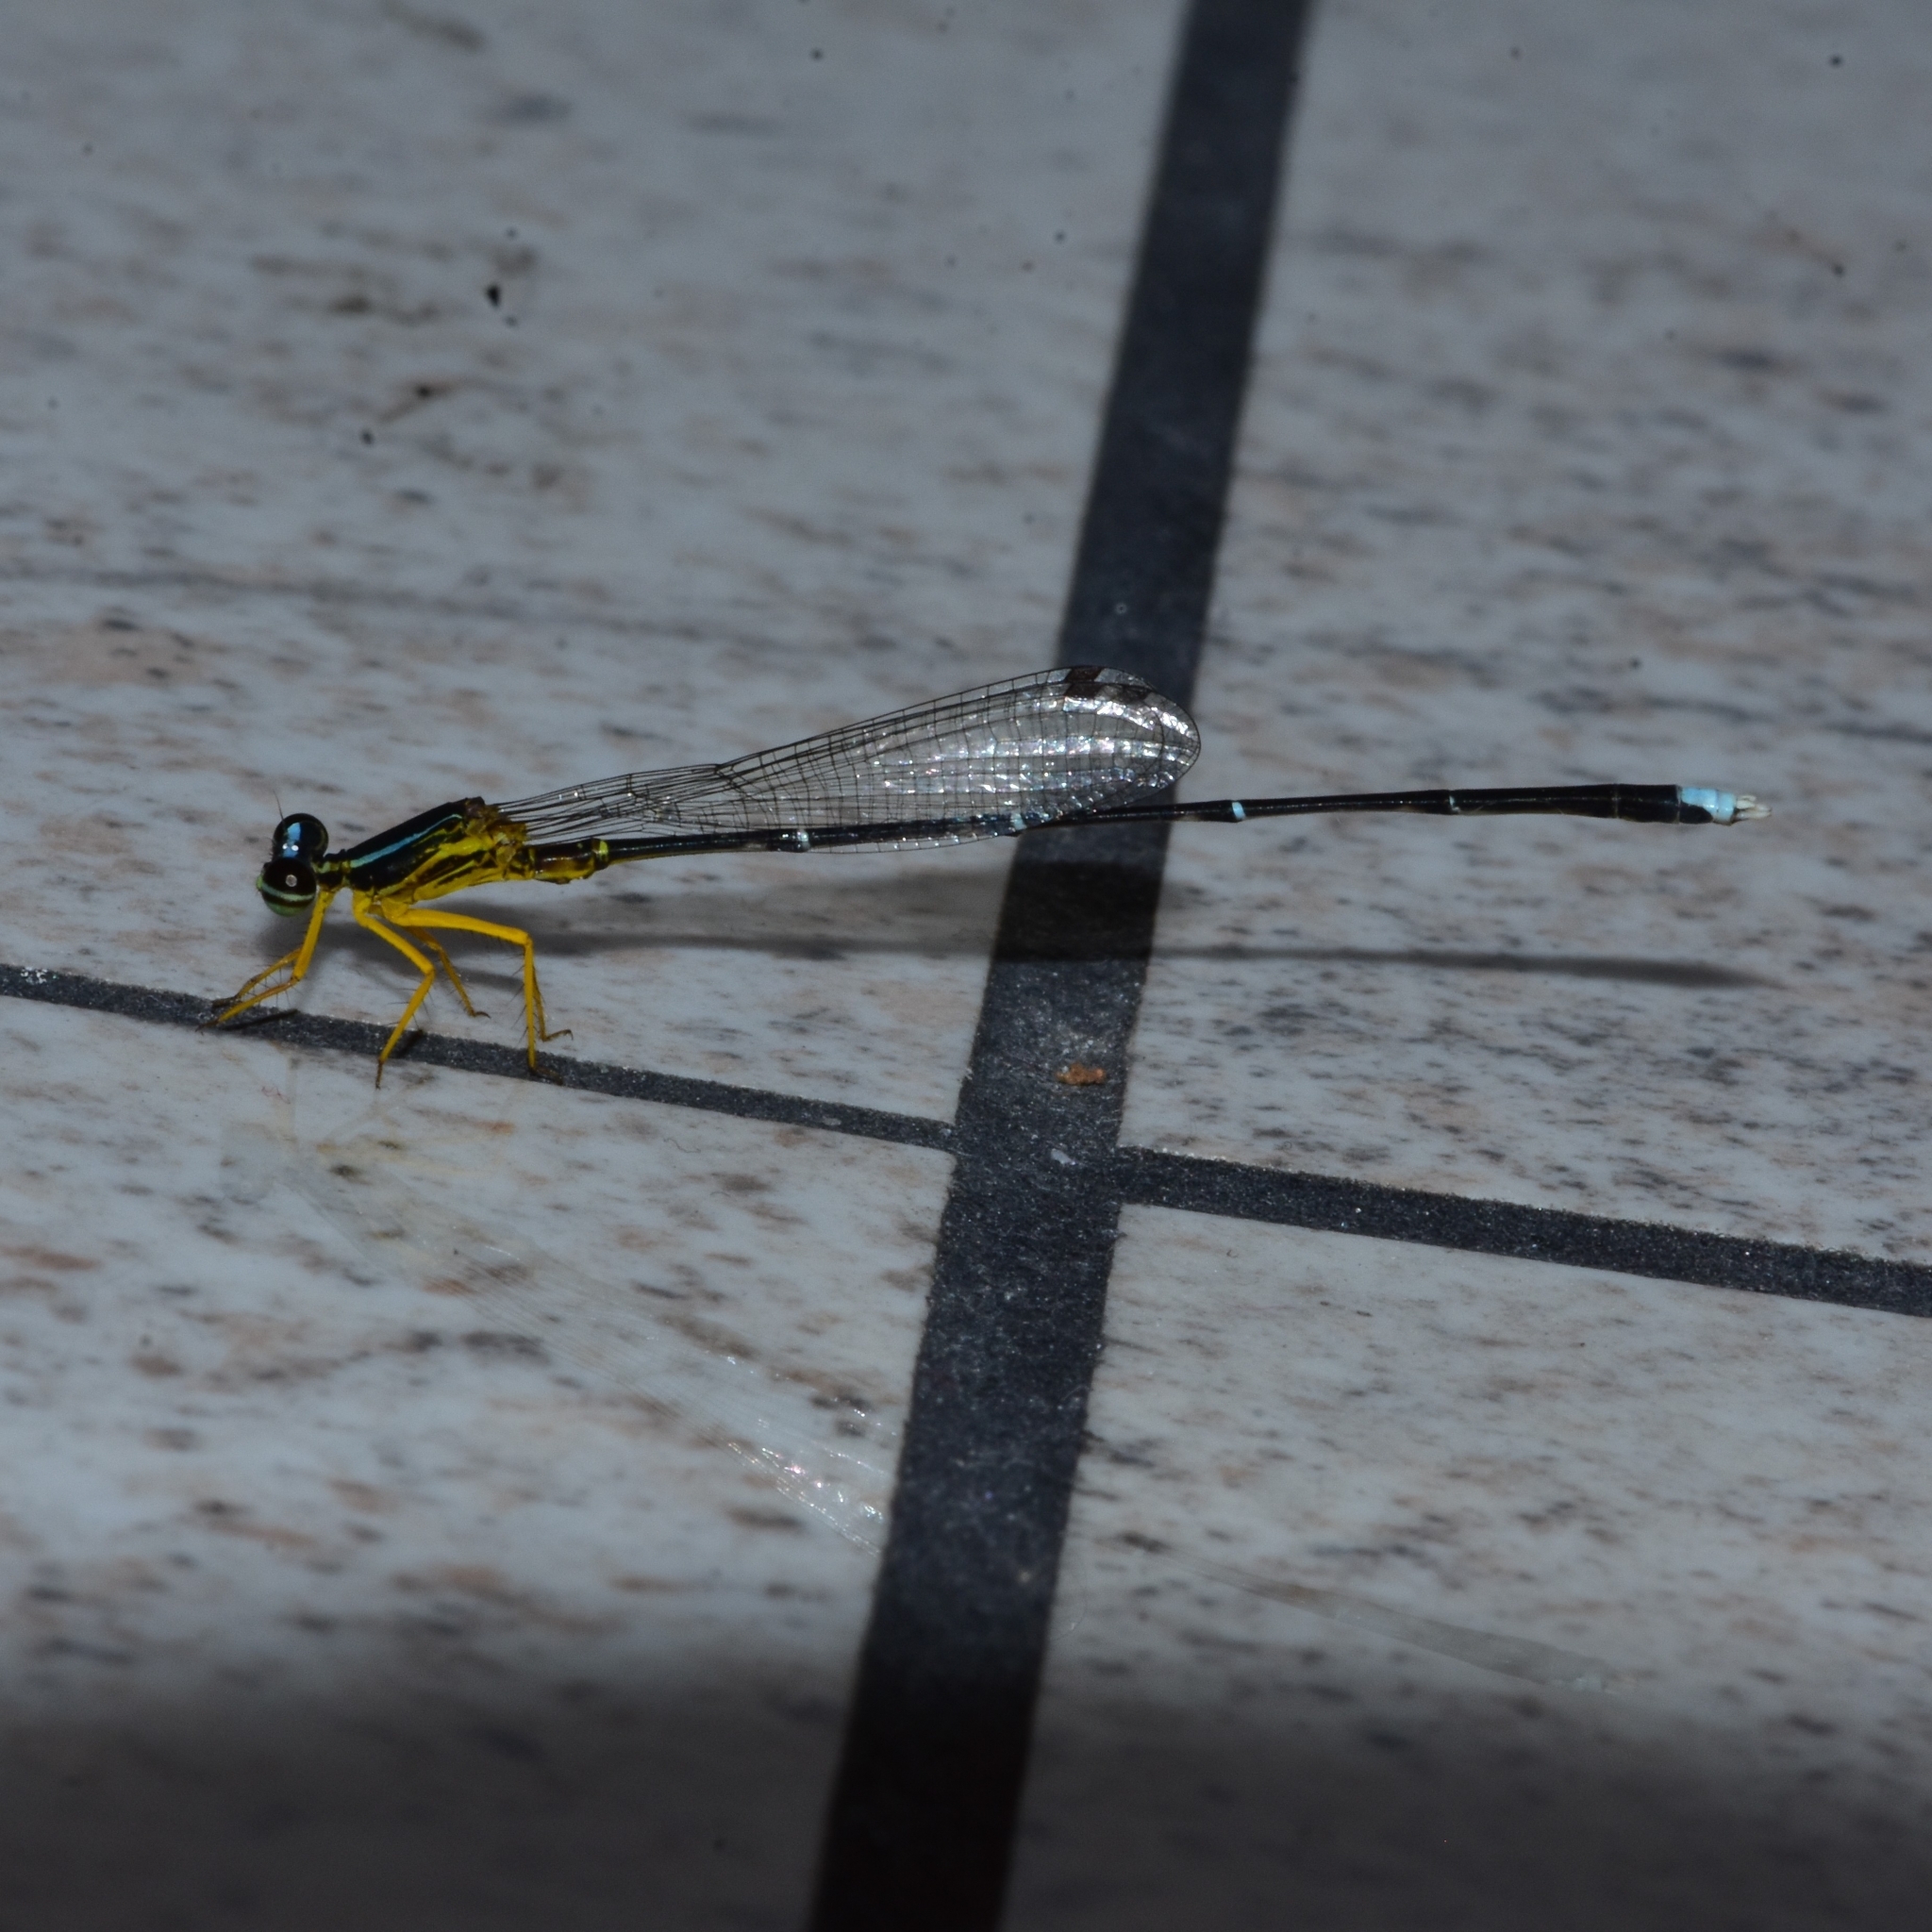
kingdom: Animalia
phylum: Arthropoda
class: Insecta
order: Odonata
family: Platycnemididae
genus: Copera
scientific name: Copera vittata
